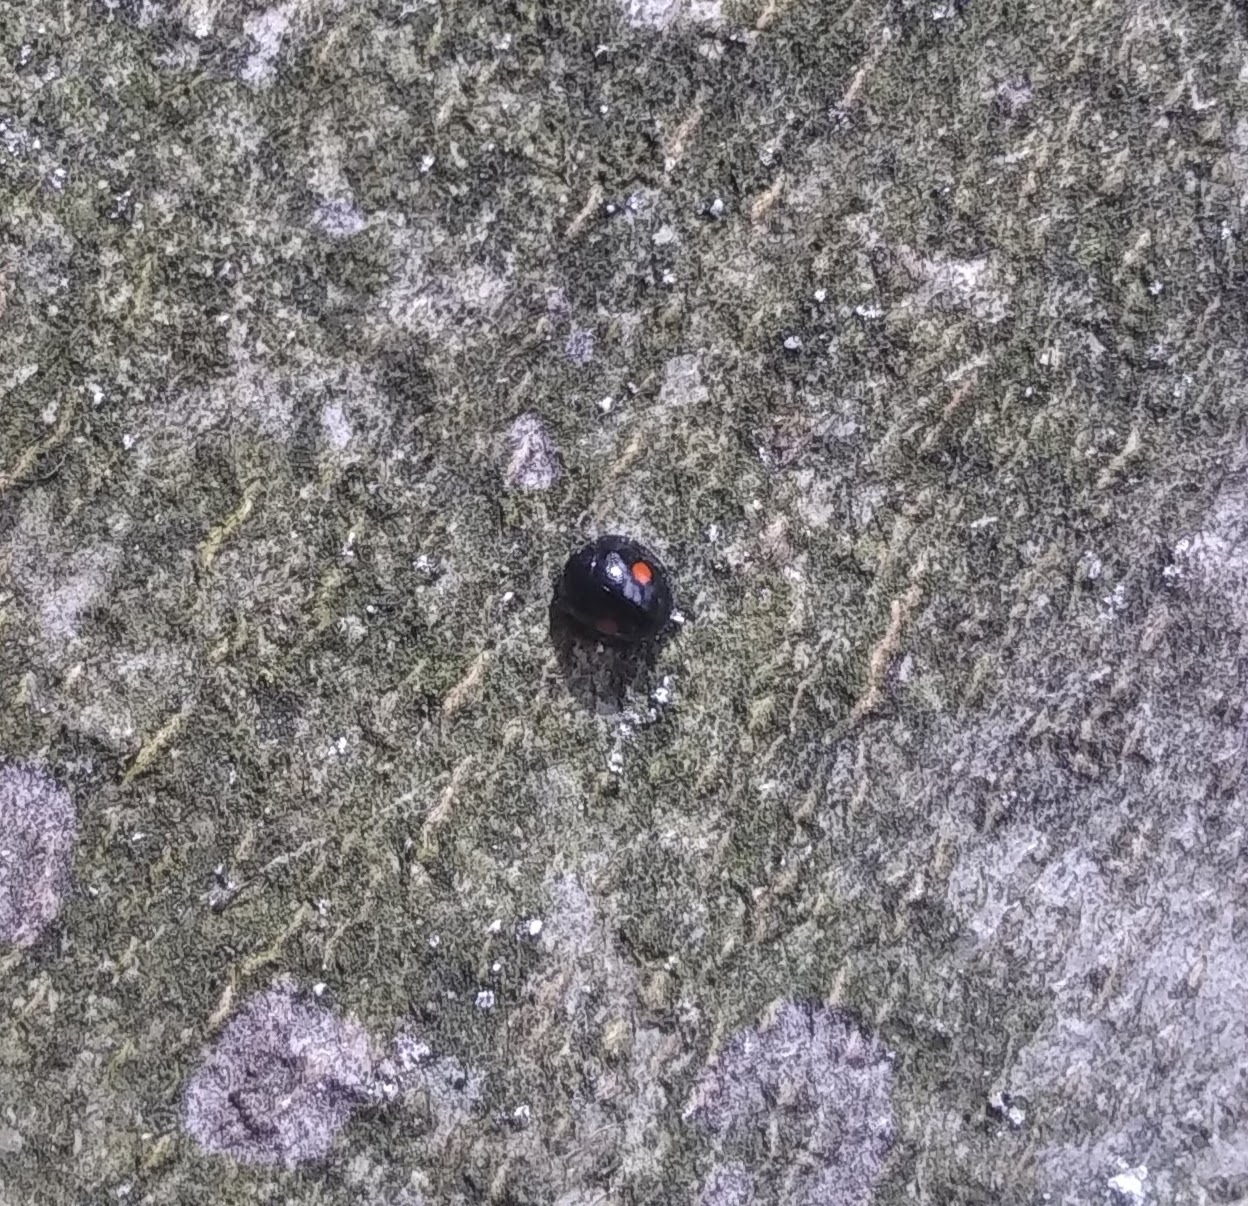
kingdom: Animalia
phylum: Arthropoda
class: Insecta
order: Coleoptera
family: Coccinellidae
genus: Chilocorus
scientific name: Chilocorus stigma
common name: Twicestabbed lady beetle
